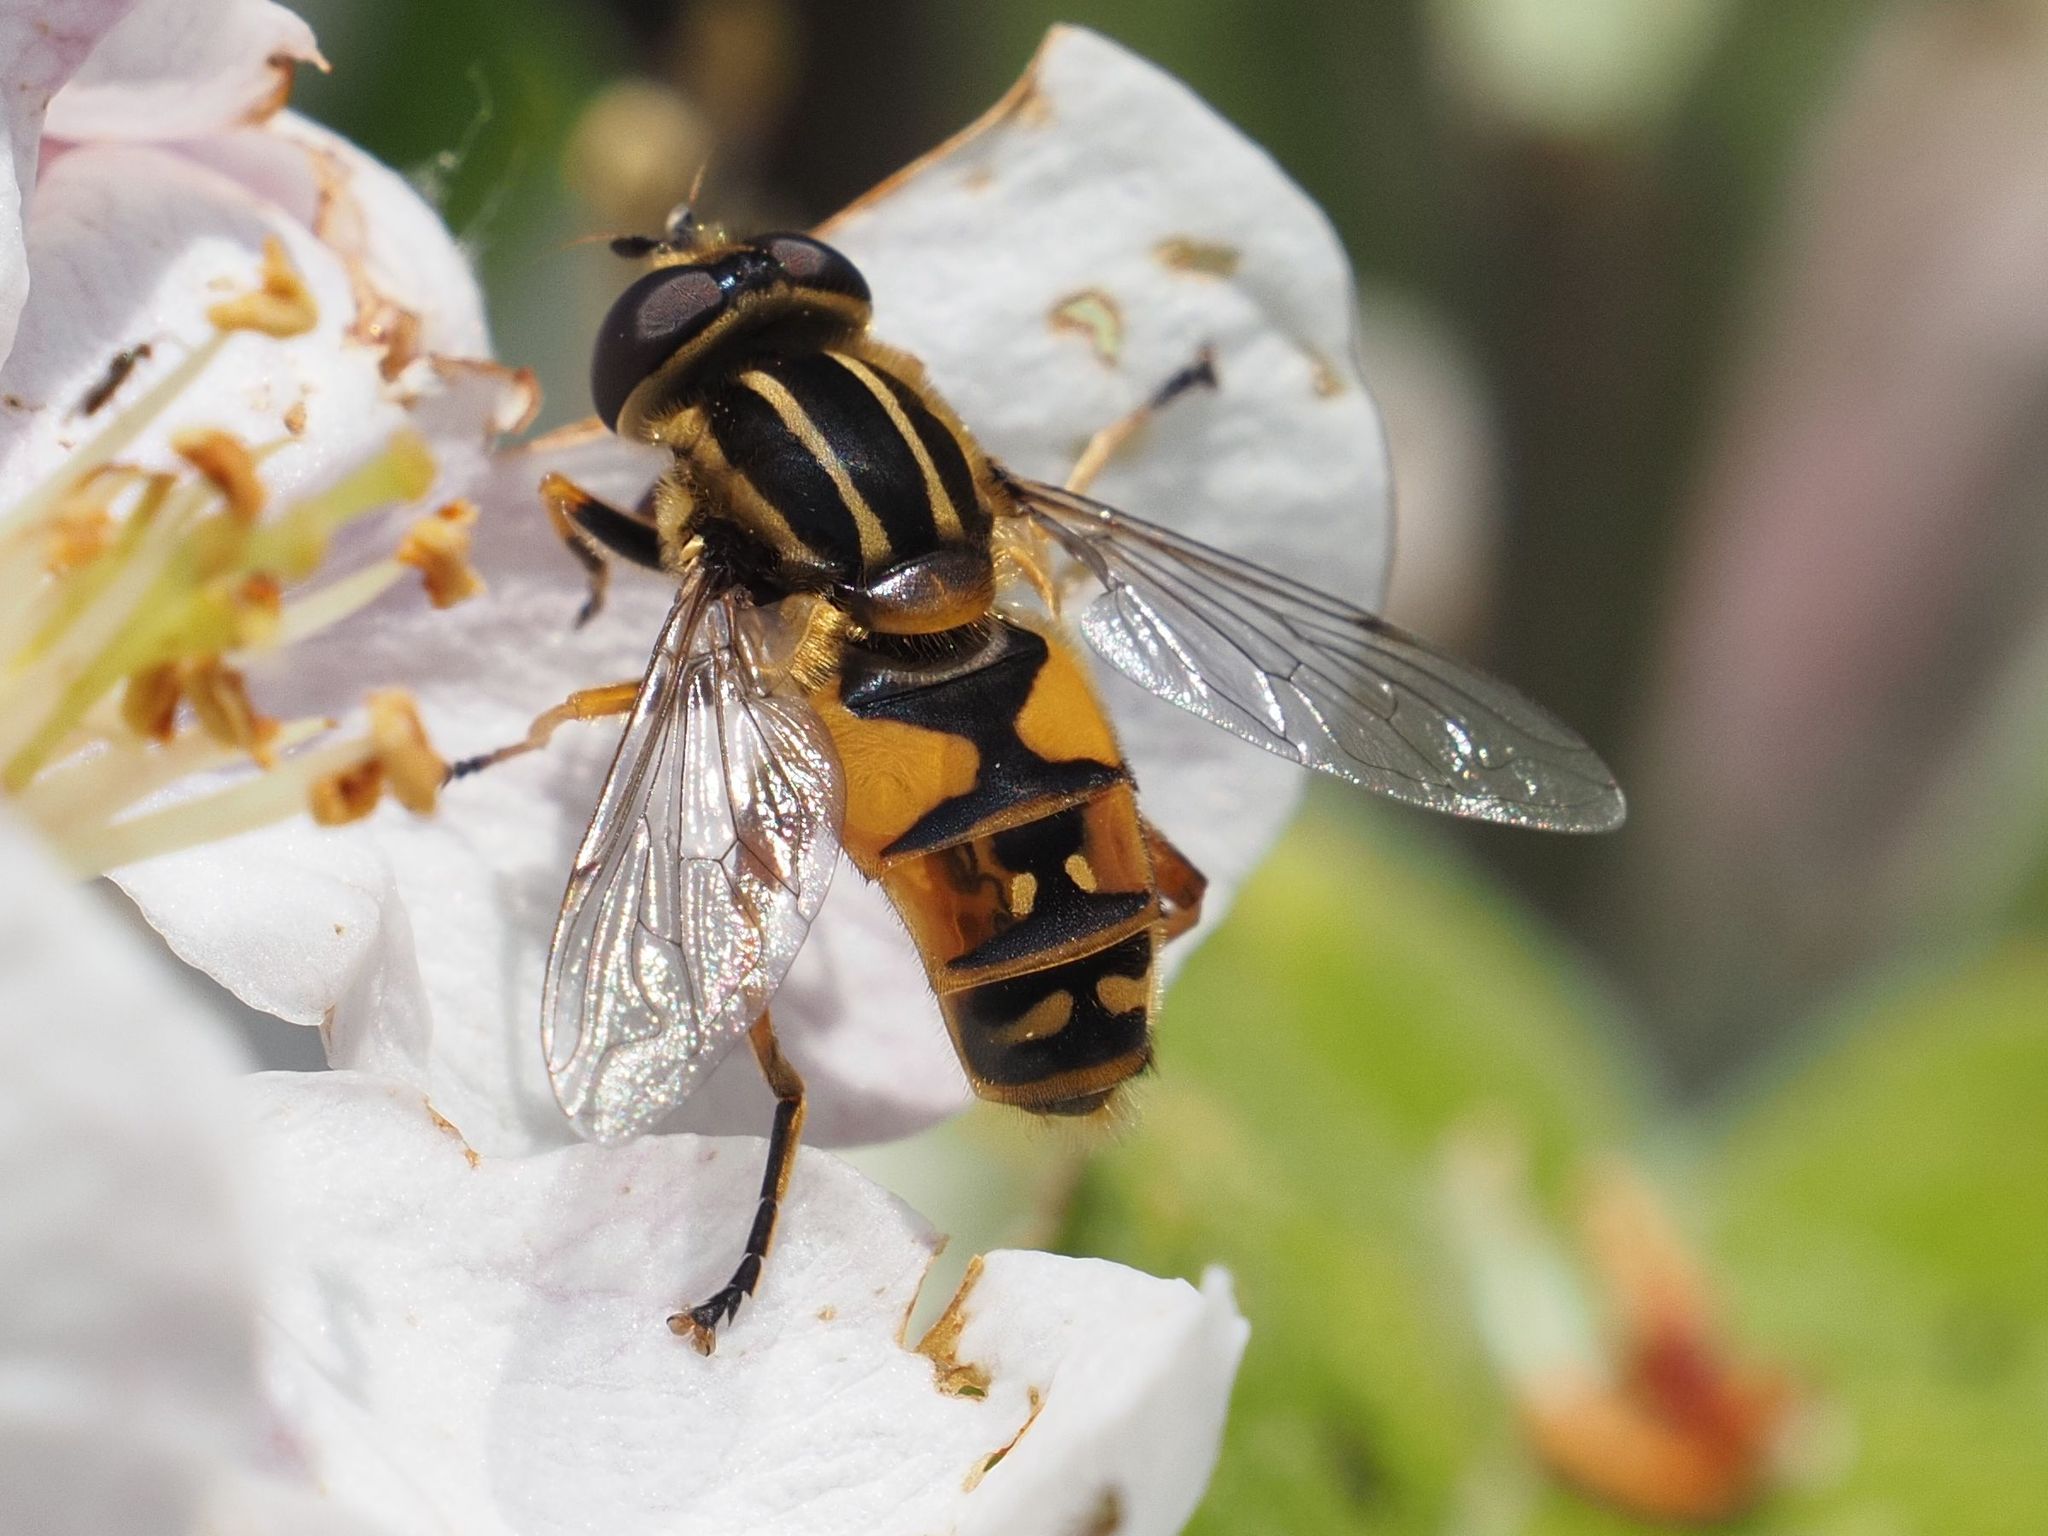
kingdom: Animalia
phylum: Arthropoda
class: Insecta
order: Diptera
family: Syrphidae
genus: Helophilus
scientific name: Helophilus pendulus
